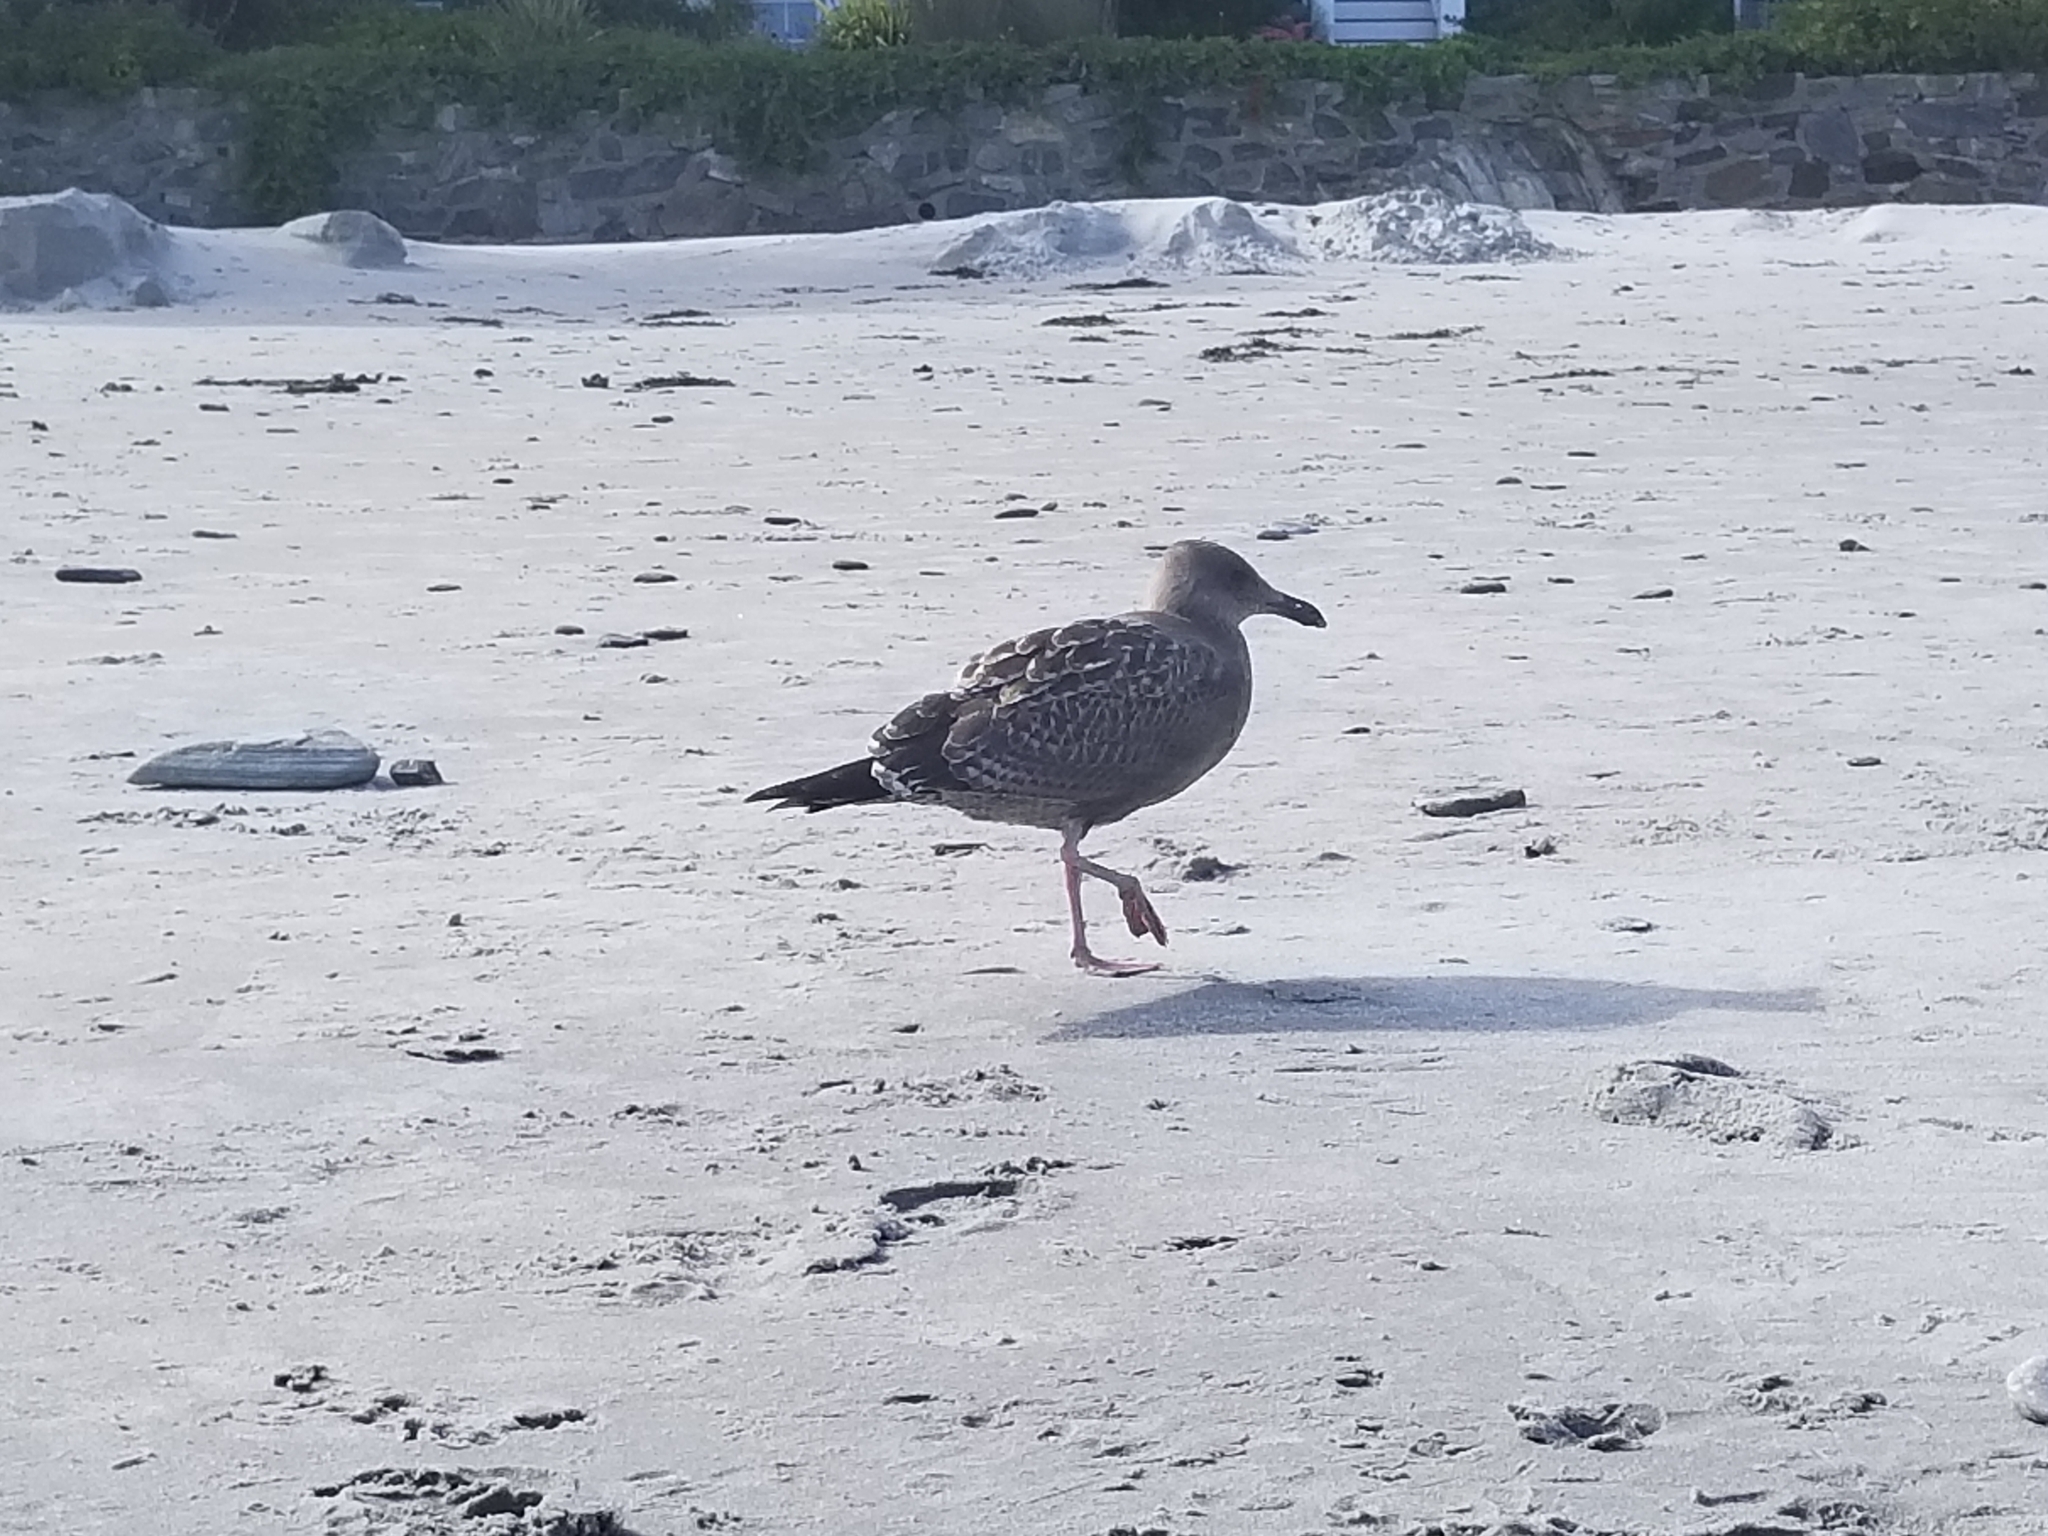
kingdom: Animalia
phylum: Chordata
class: Aves
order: Charadriiformes
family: Laridae
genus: Larus
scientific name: Larus argentatus
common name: Herring gull
